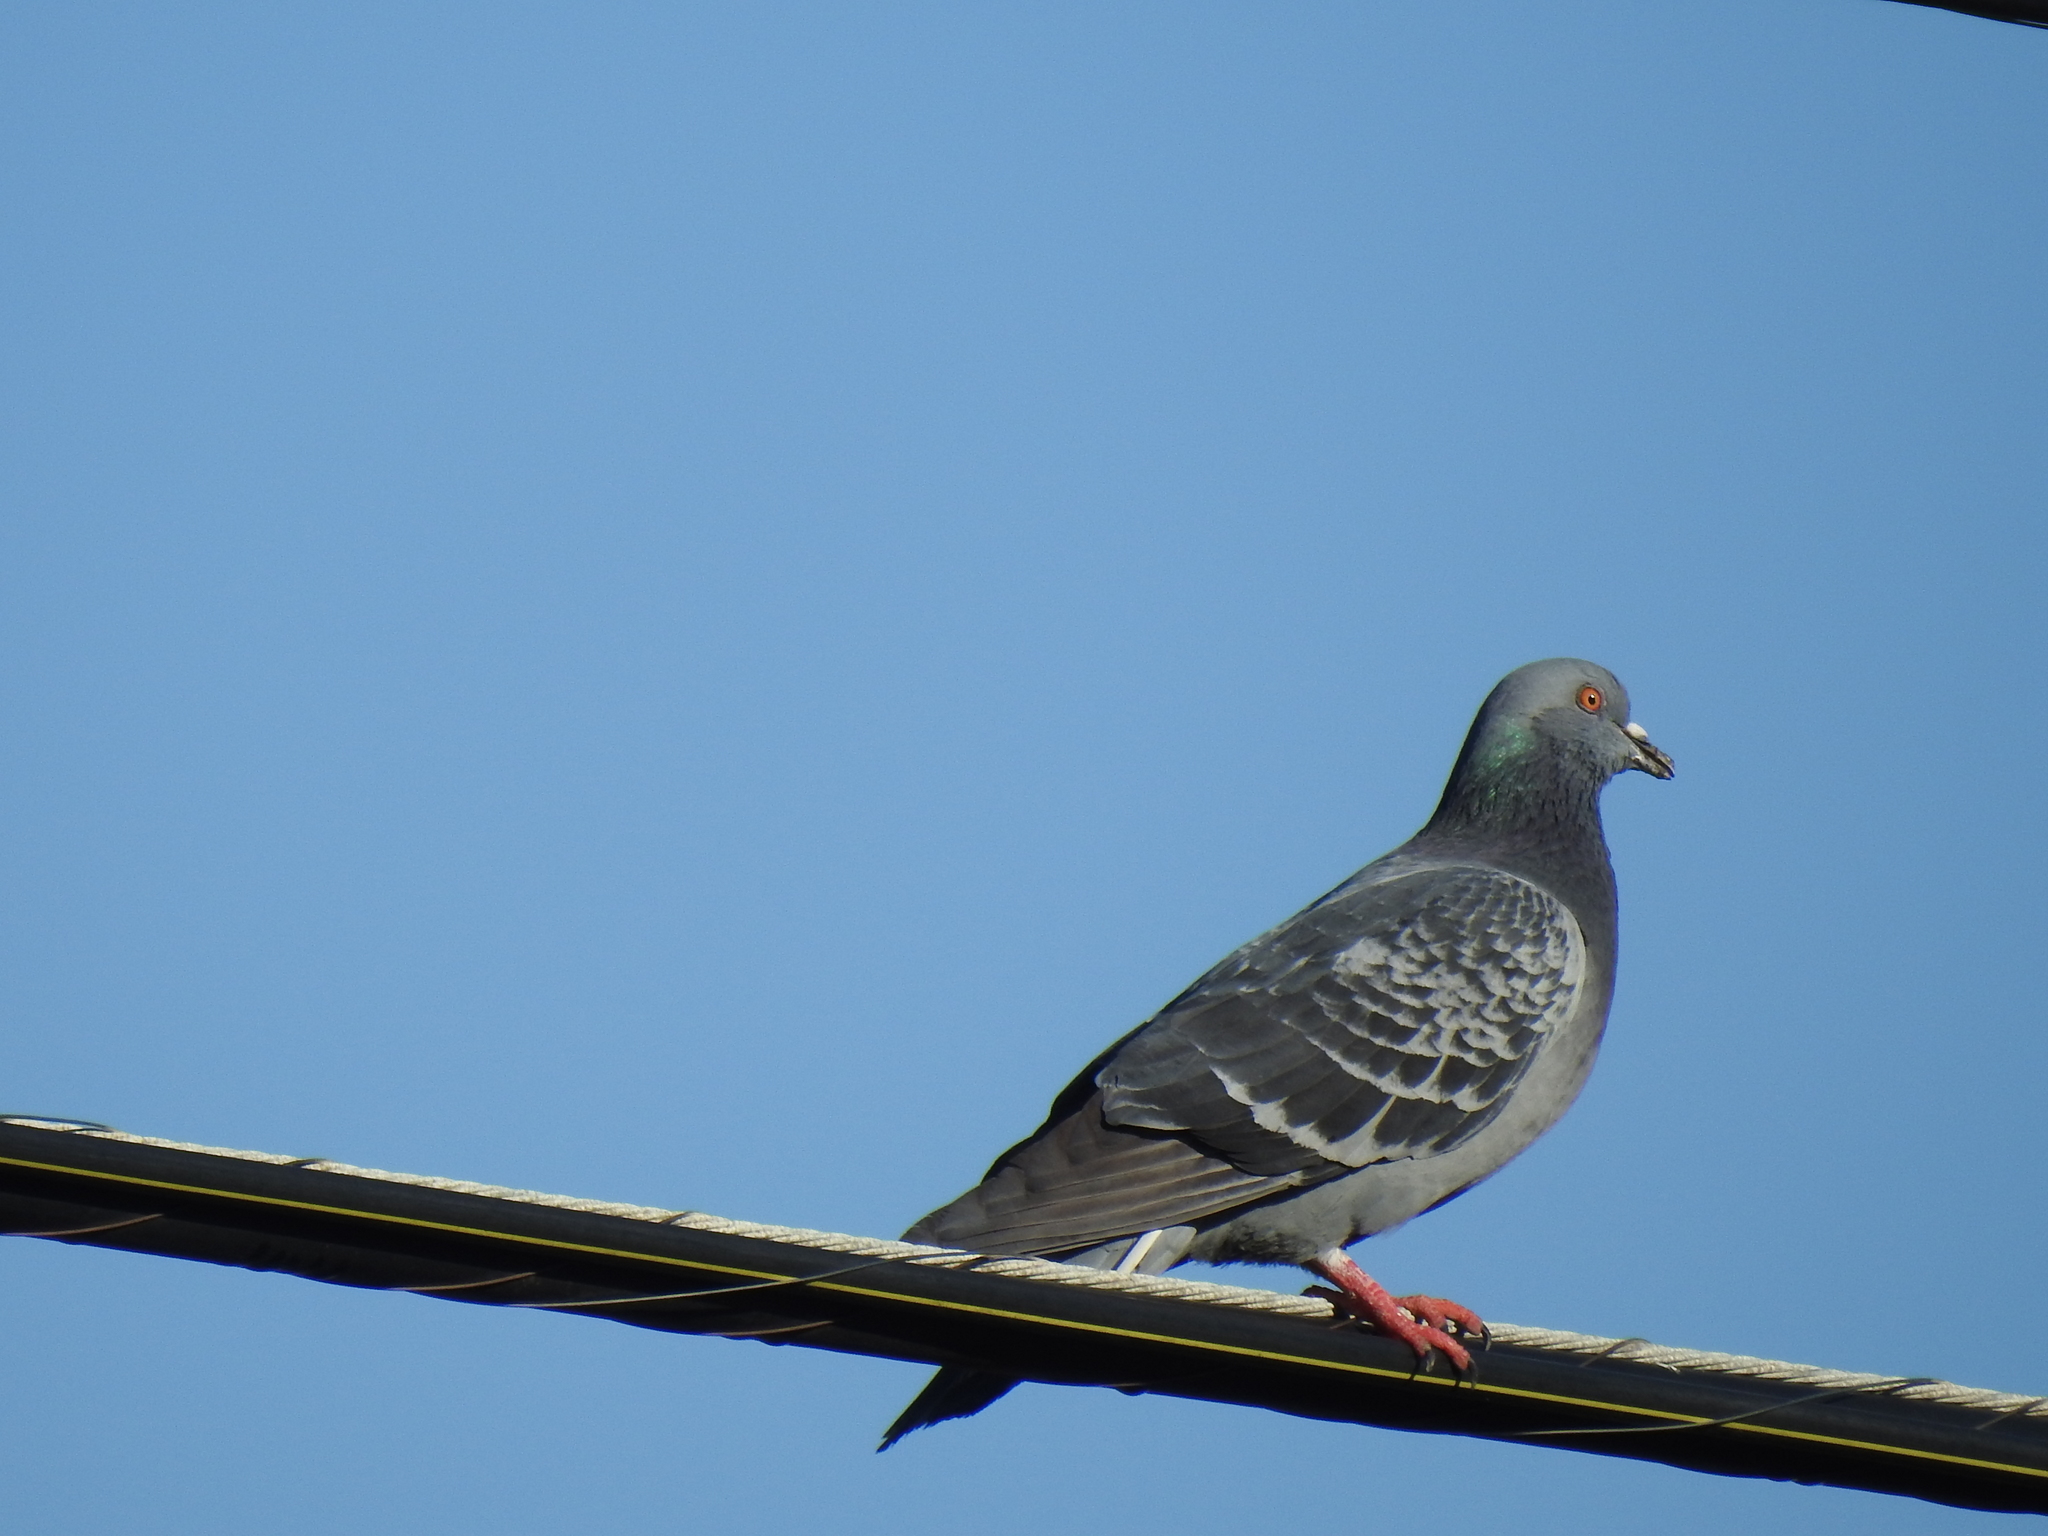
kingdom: Animalia
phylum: Chordata
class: Aves
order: Columbiformes
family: Columbidae
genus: Columba
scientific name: Columba livia
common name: Rock pigeon
